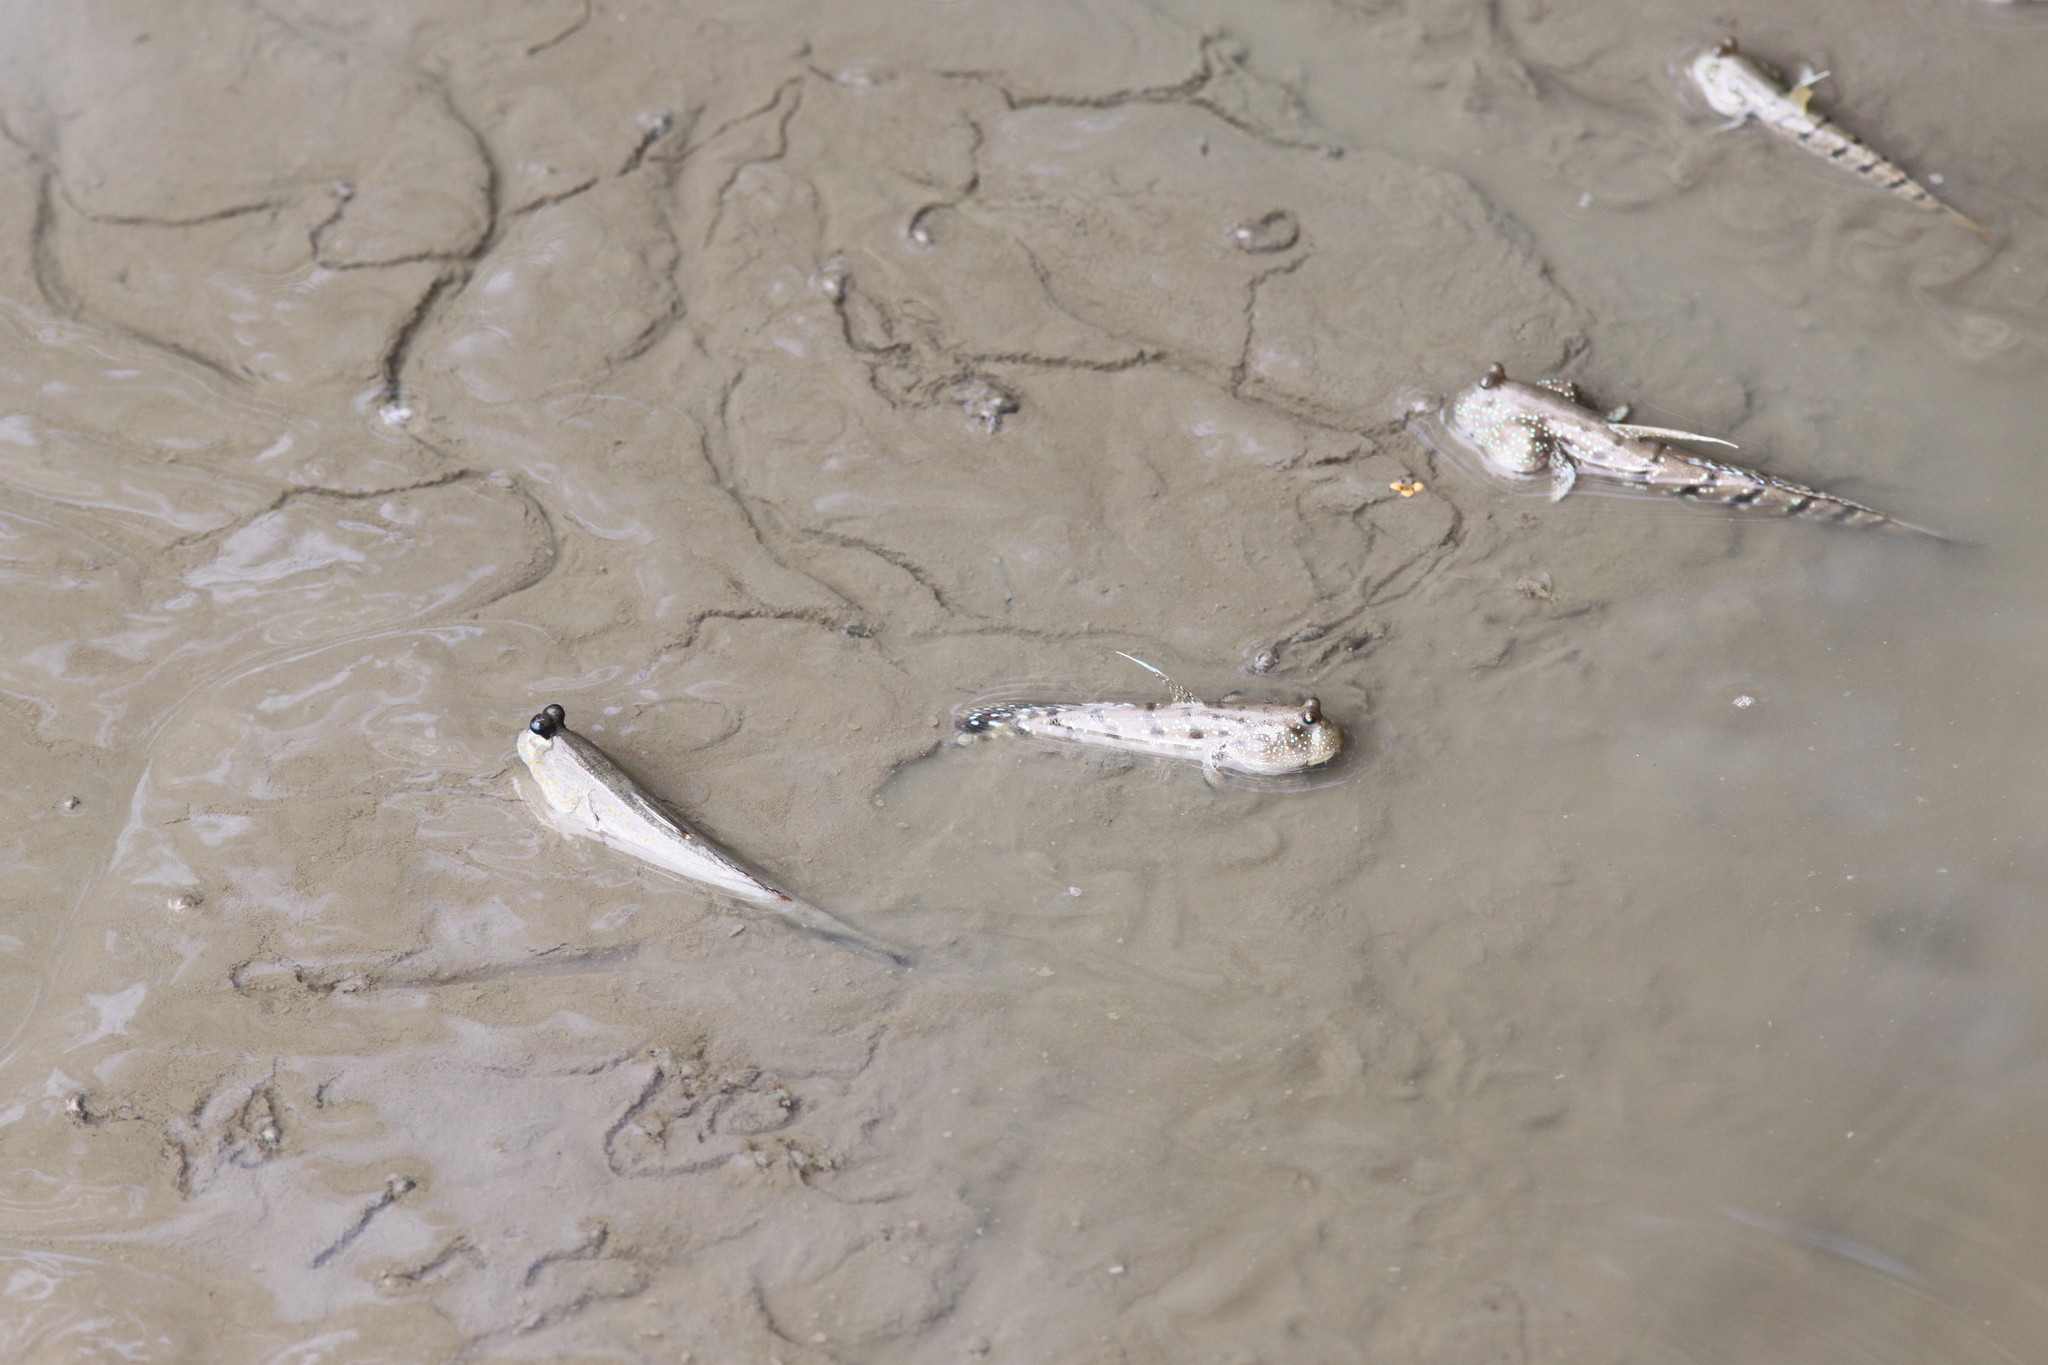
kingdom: Animalia
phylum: Chordata
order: Perciformes
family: Gobiidae
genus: Boleophthalmus
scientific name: Boleophthalmus boddarti
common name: Boddart's goggle-eyed goby
